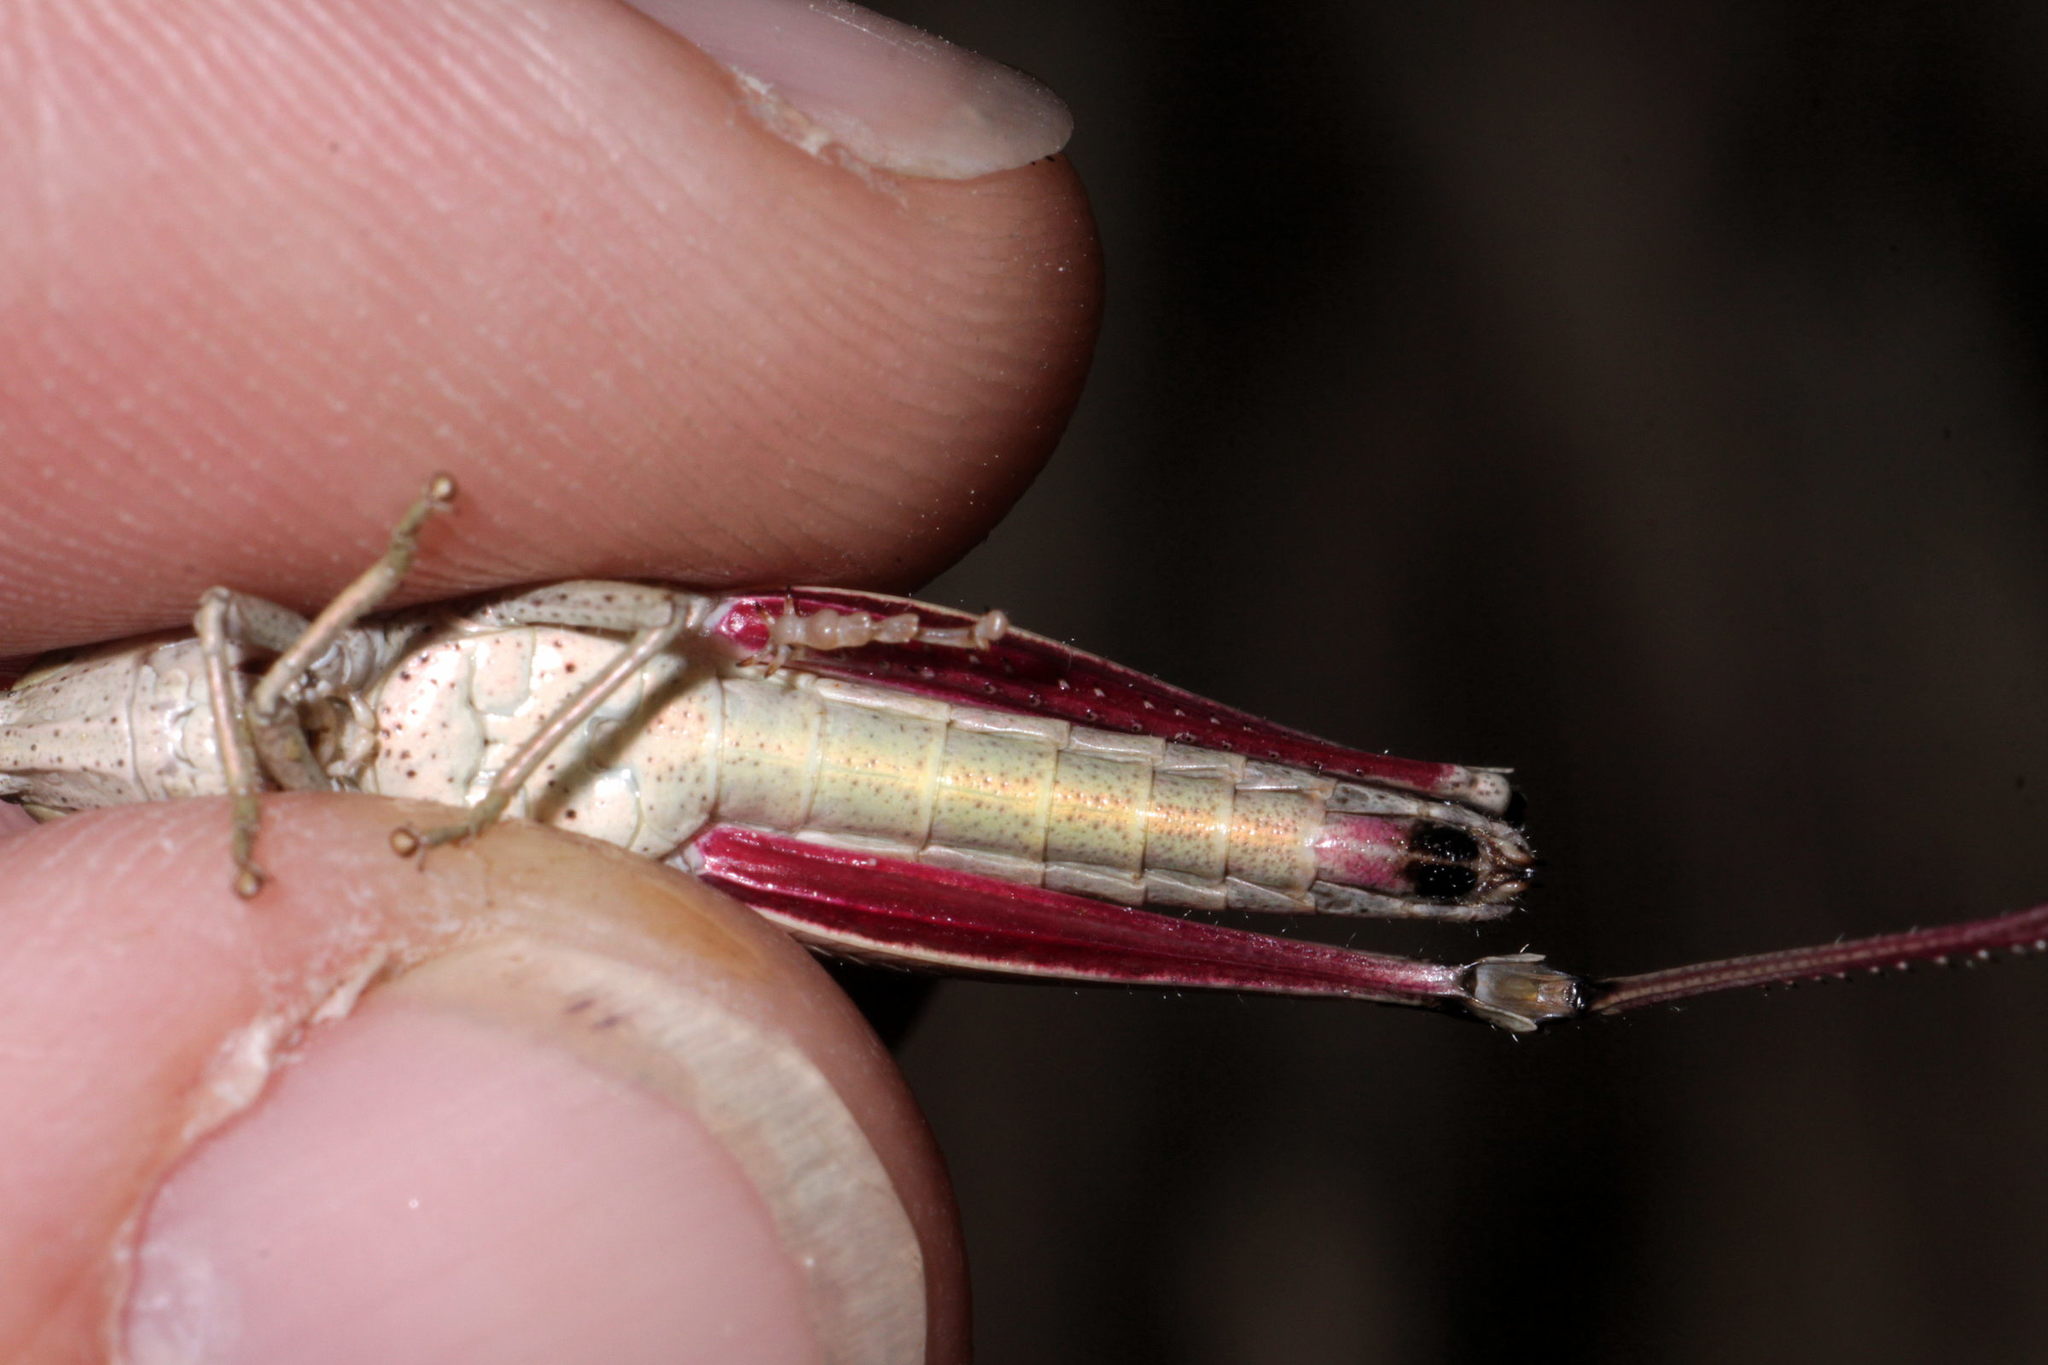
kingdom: Animalia
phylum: Arthropoda
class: Insecta
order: Orthoptera
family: Acrididae
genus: Chrysochraon
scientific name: Chrysochraon dispar
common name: Large gold grasshopper
